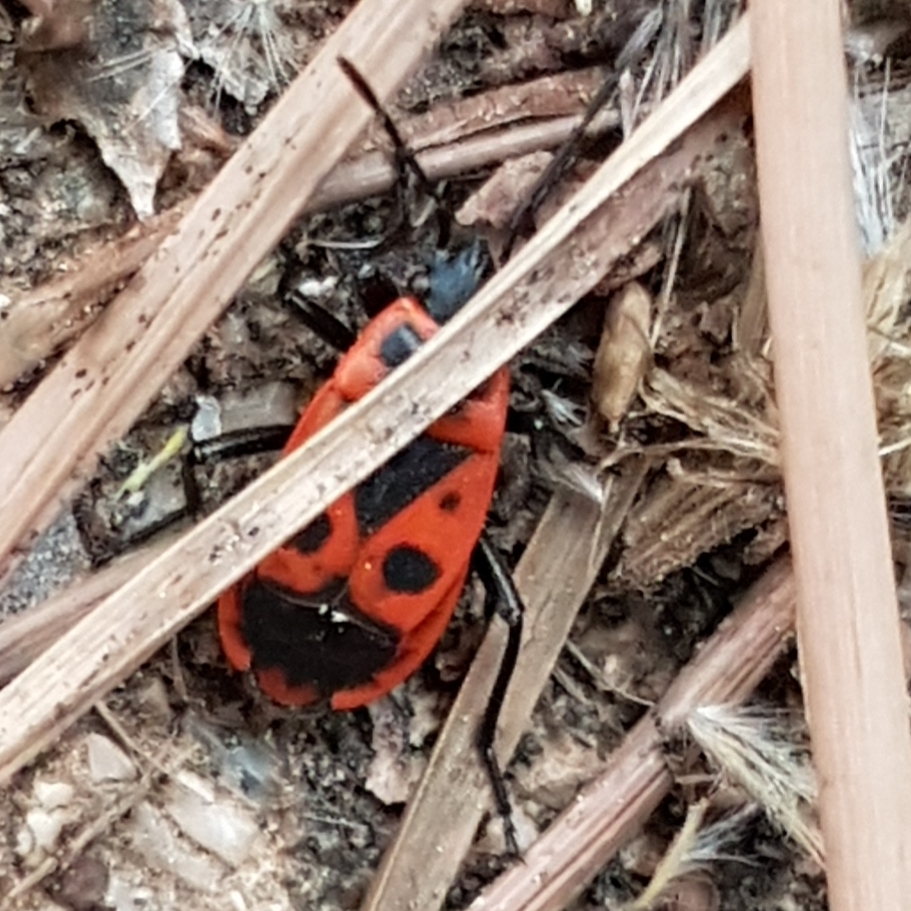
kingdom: Animalia
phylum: Arthropoda
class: Insecta
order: Hemiptera
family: Pyrrhocoridae
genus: Pyrrhocoris
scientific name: Pyrrhocoris apterus
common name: Firebug
